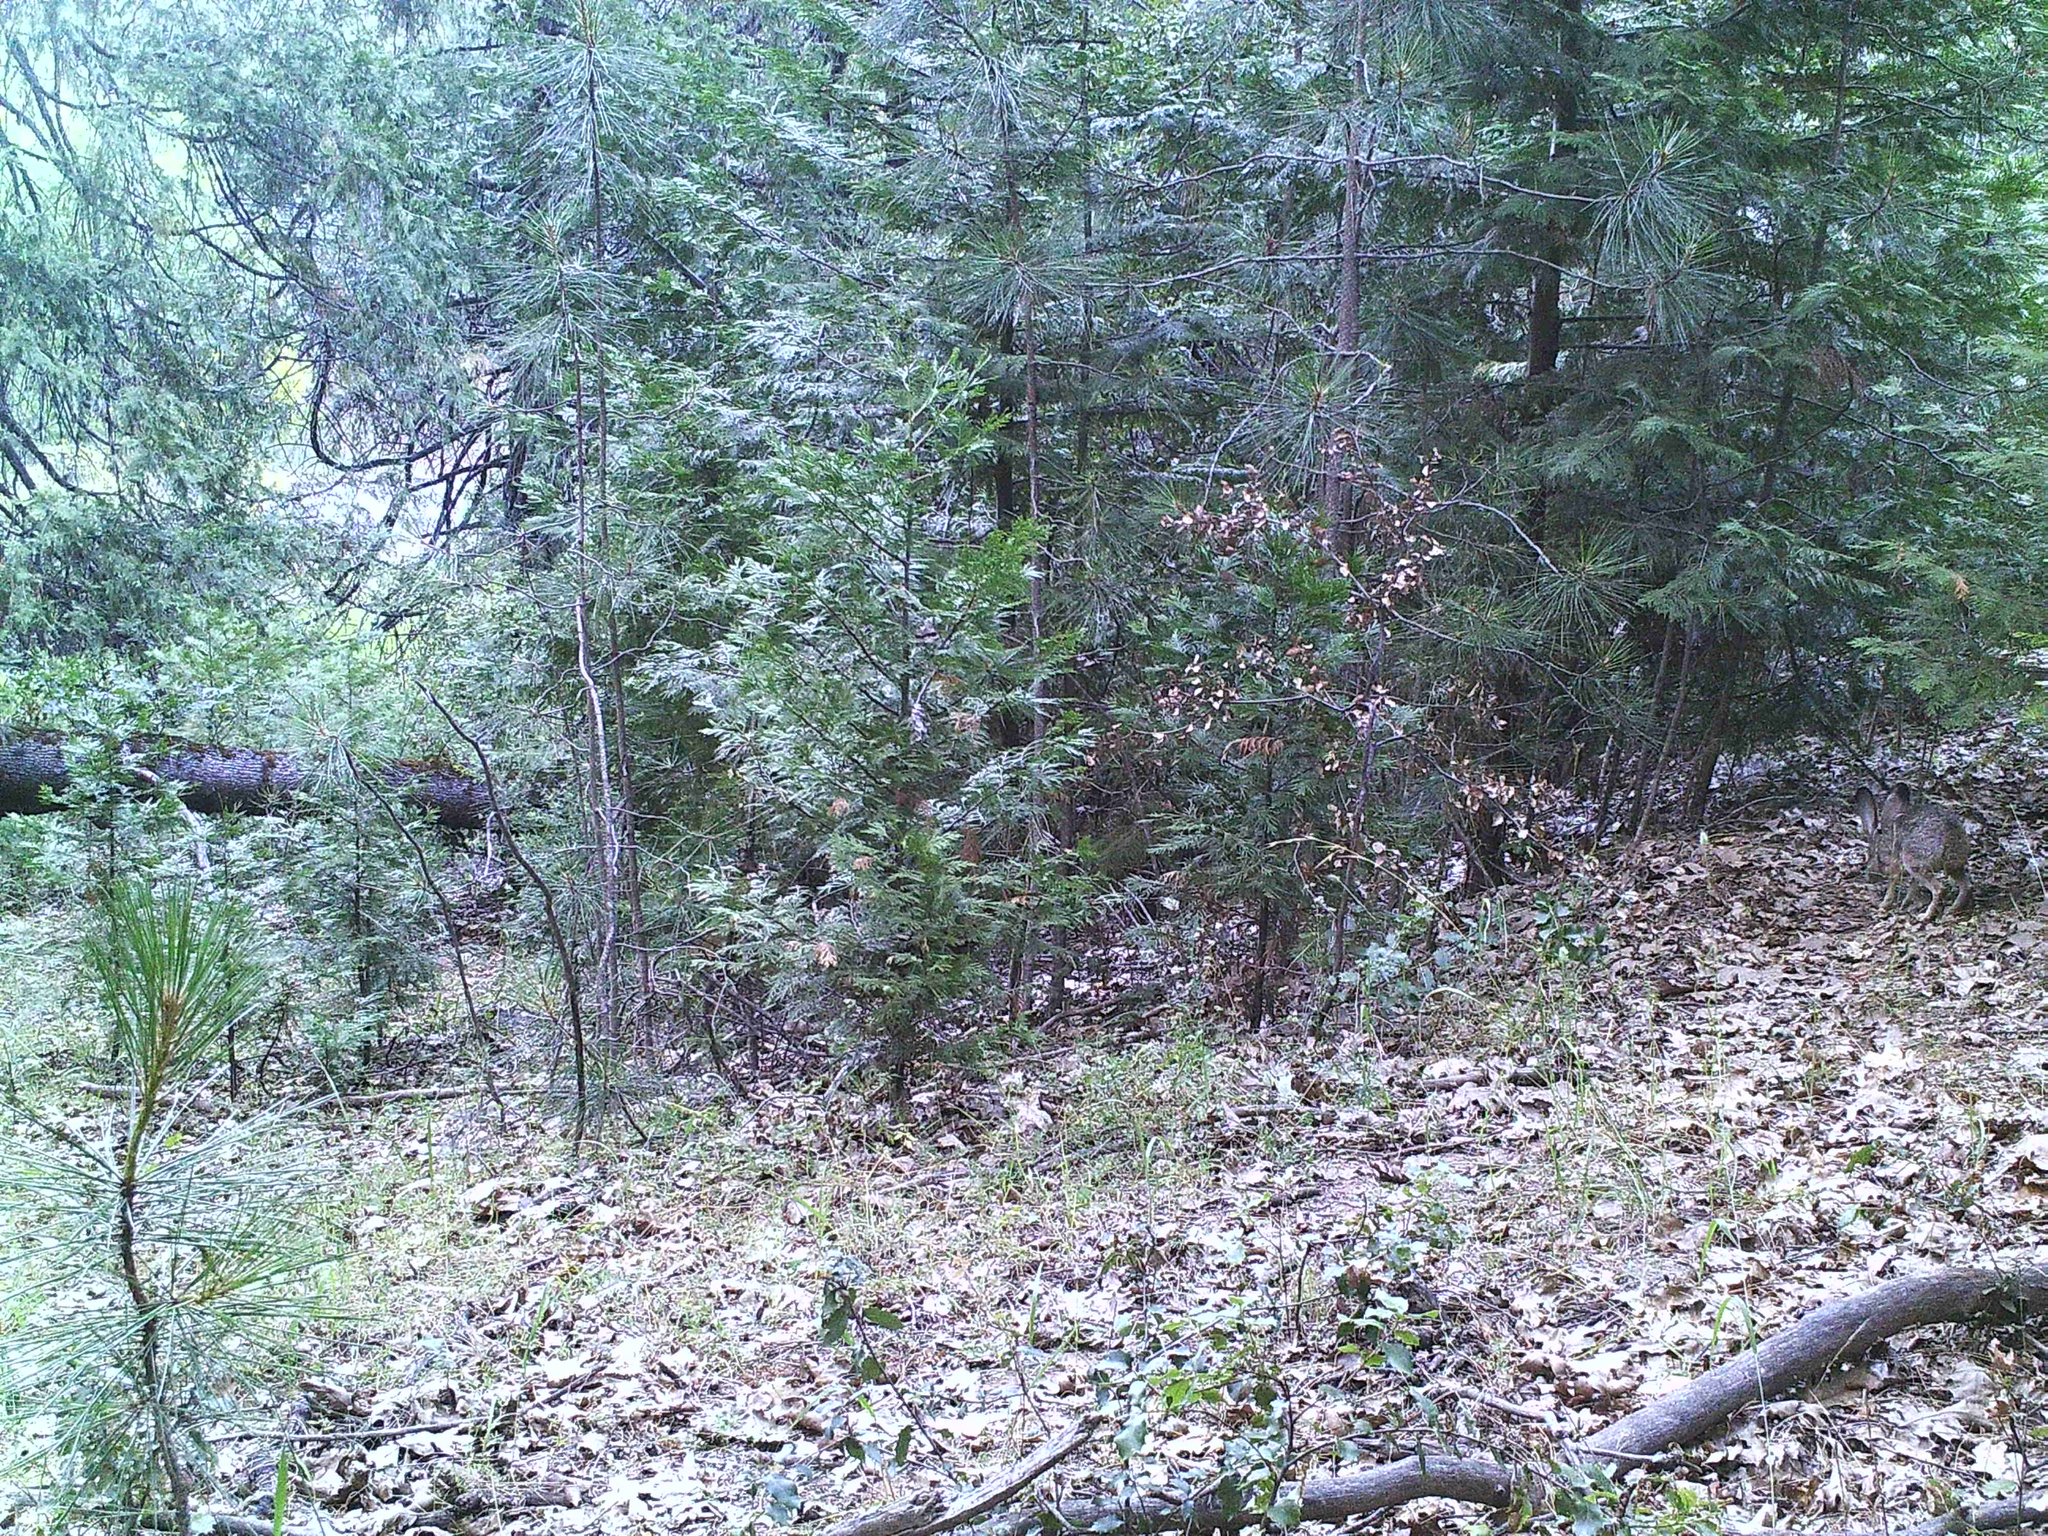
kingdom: Animalia
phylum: Chordata
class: Mammalia
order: Lagomorpha
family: Leporidae
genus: Lepus
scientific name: Lepus californicus
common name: Black-tailed jackrabbit
